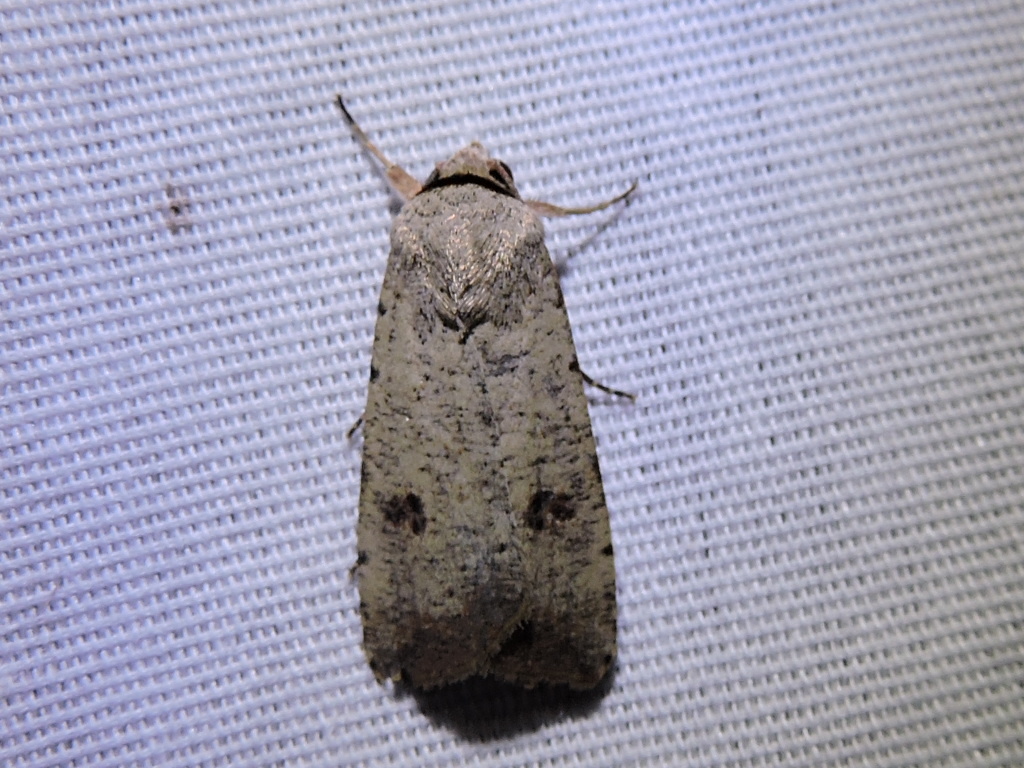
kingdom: Animalia
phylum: Arthropoda
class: Insecta
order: Lepidoptera
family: Noctuidae
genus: Anicla
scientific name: Anicla infecta
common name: Green cutworm
